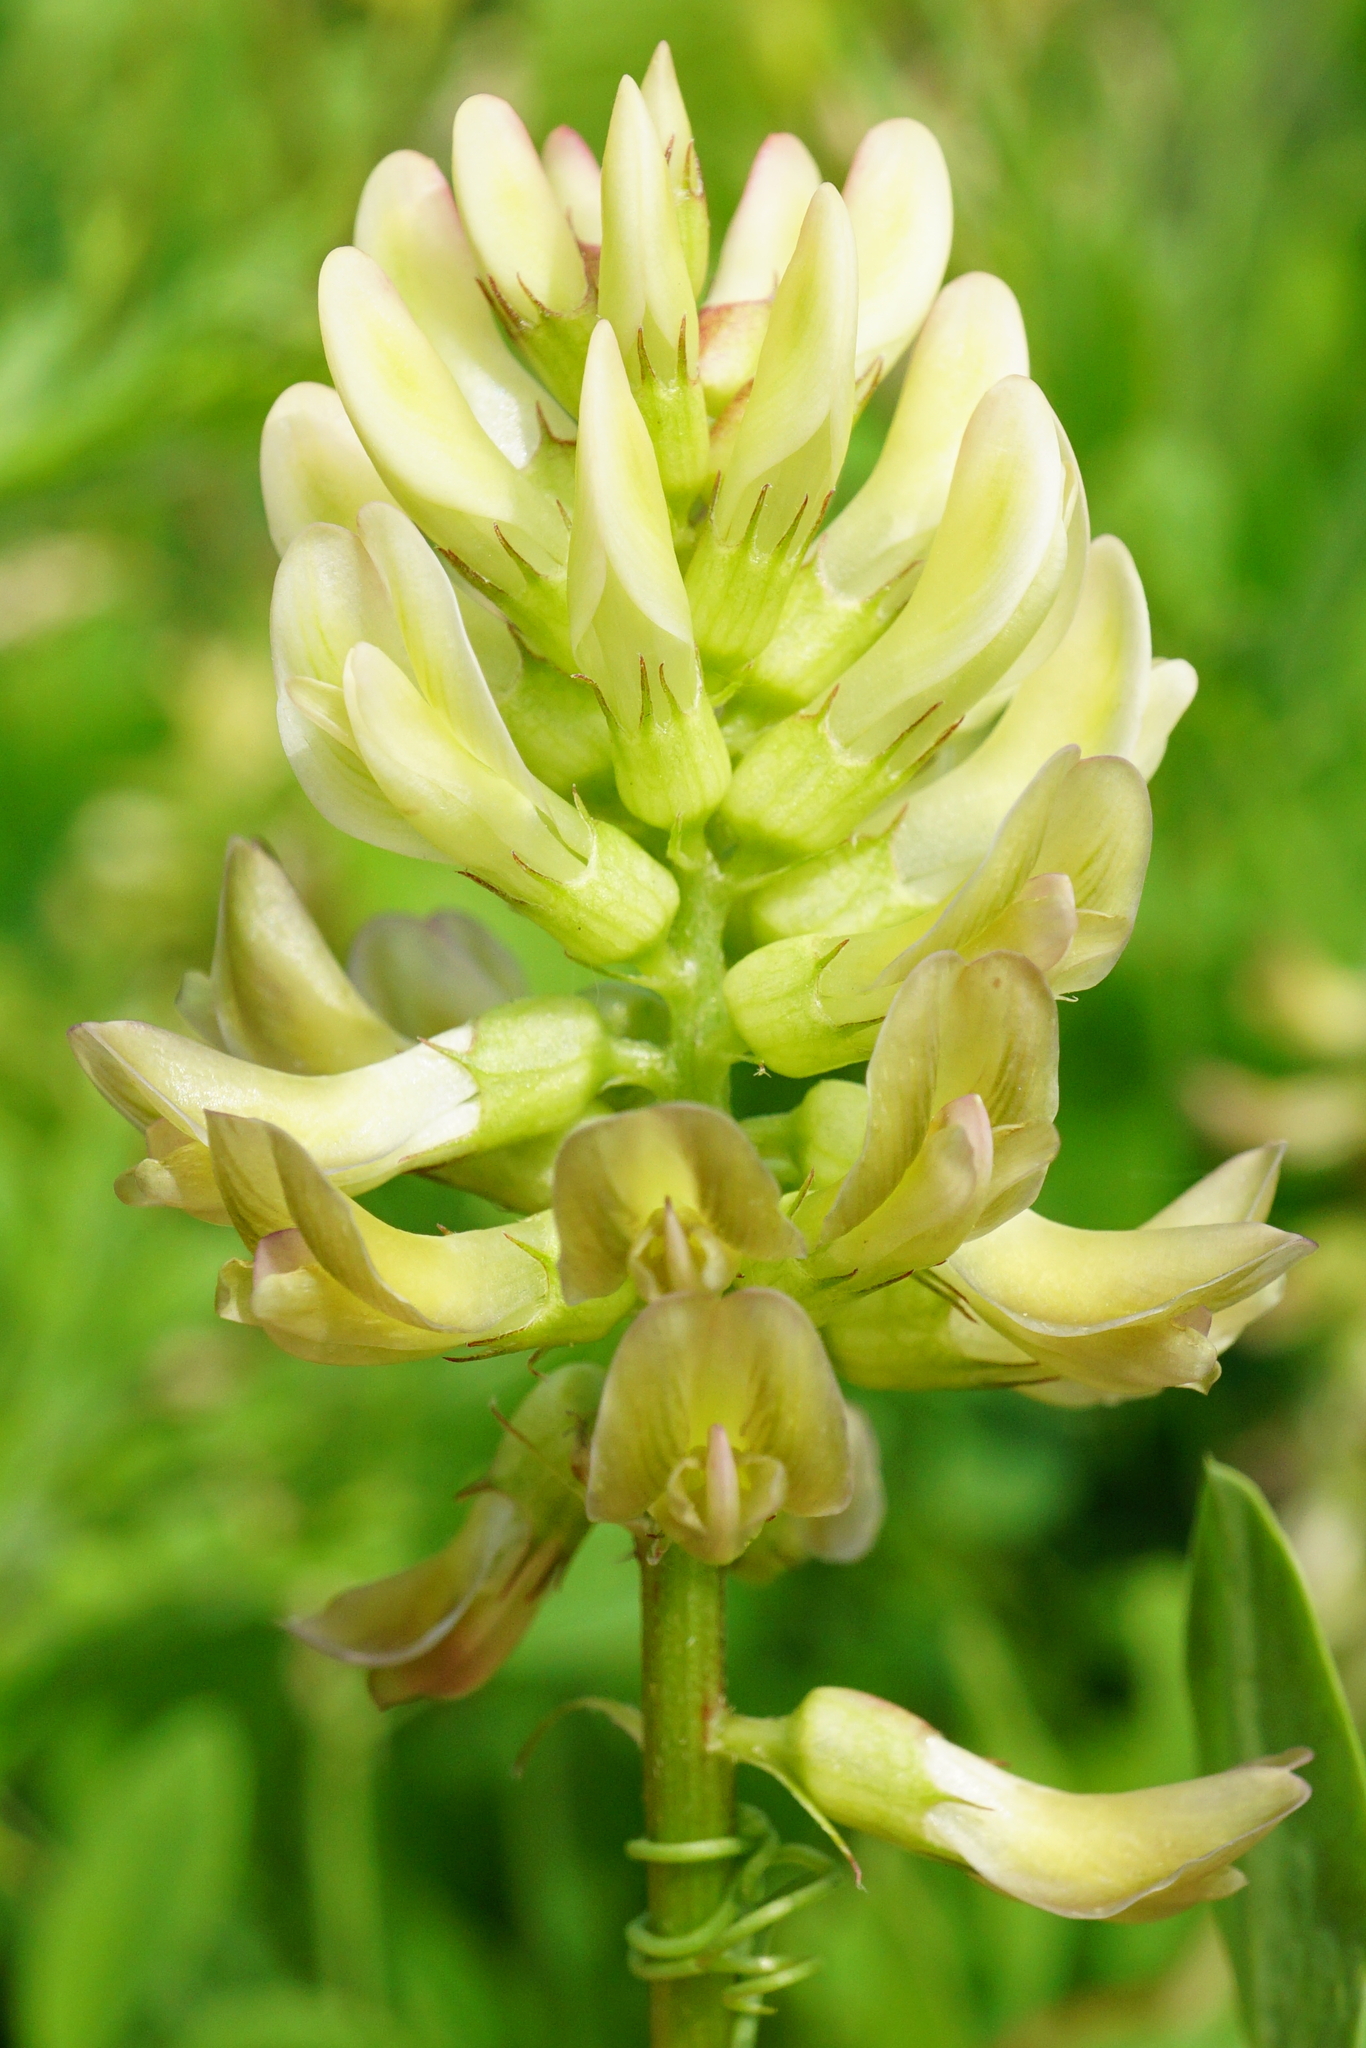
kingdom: Plantae
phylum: Tracheophyta
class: Magnoliopsida
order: Fabales
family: Fabaceae
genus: Astragalus
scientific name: Astragalus glycyphyllos
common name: Wild liquorice
